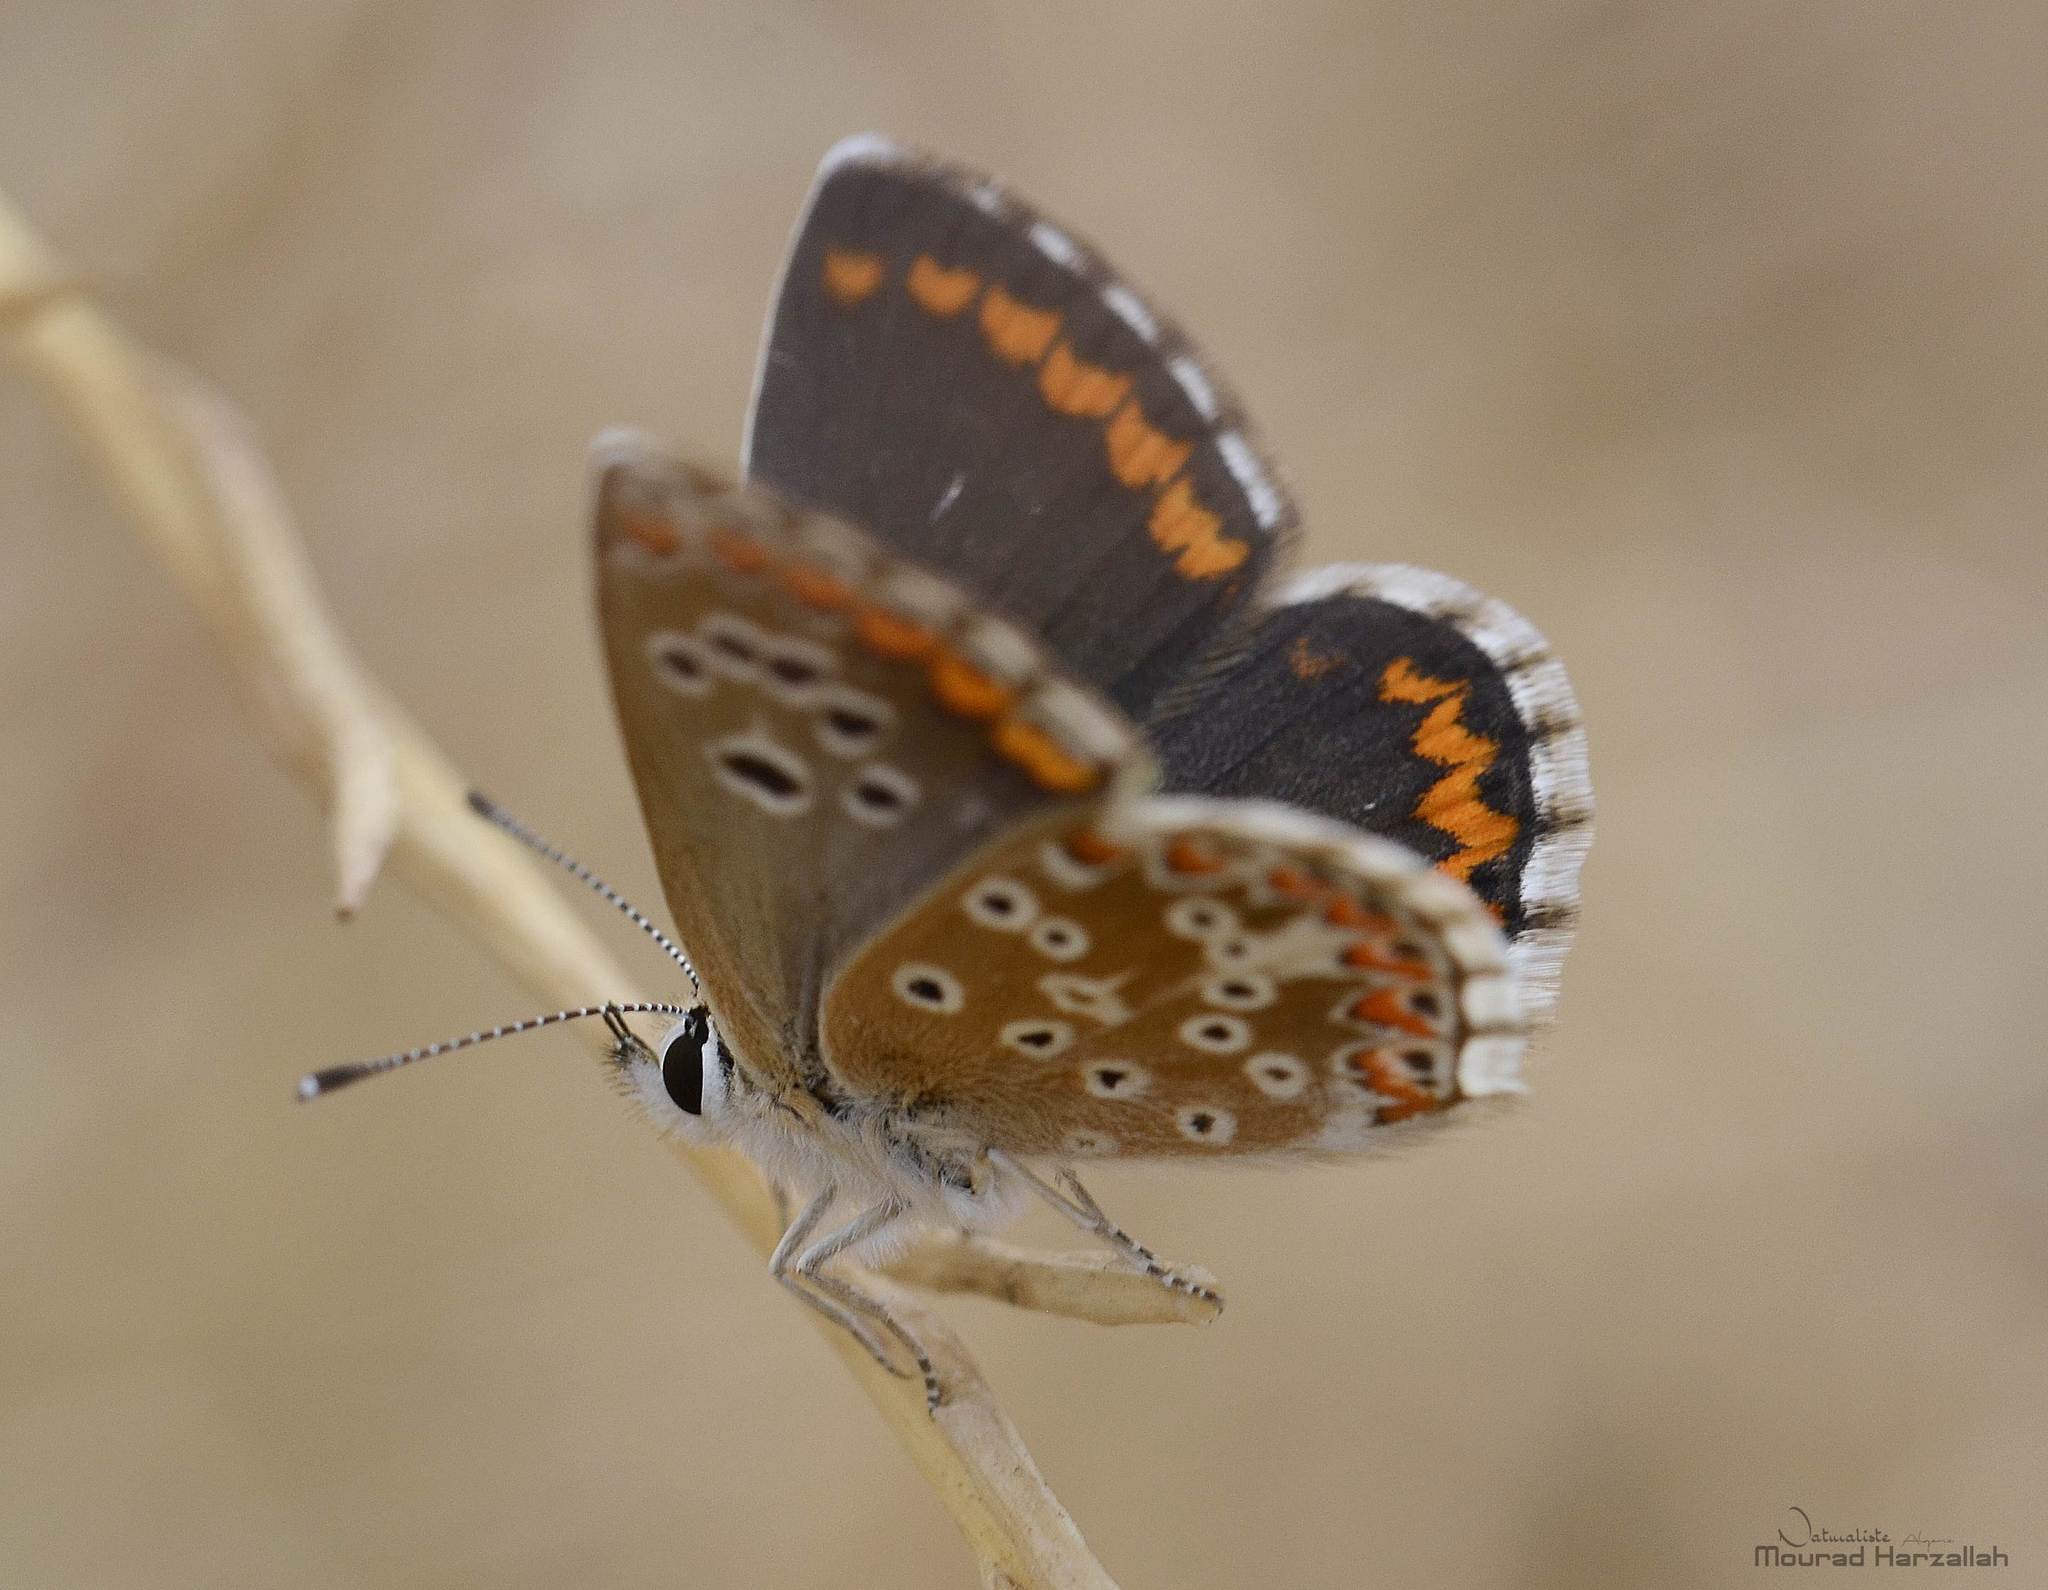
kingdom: Animalia
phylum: Arthropoda
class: Insecta
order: Lepidoptera
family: Lycaenidae
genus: Aricia
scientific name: Aricia cramera
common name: Eschscholtz´s brown  argus
